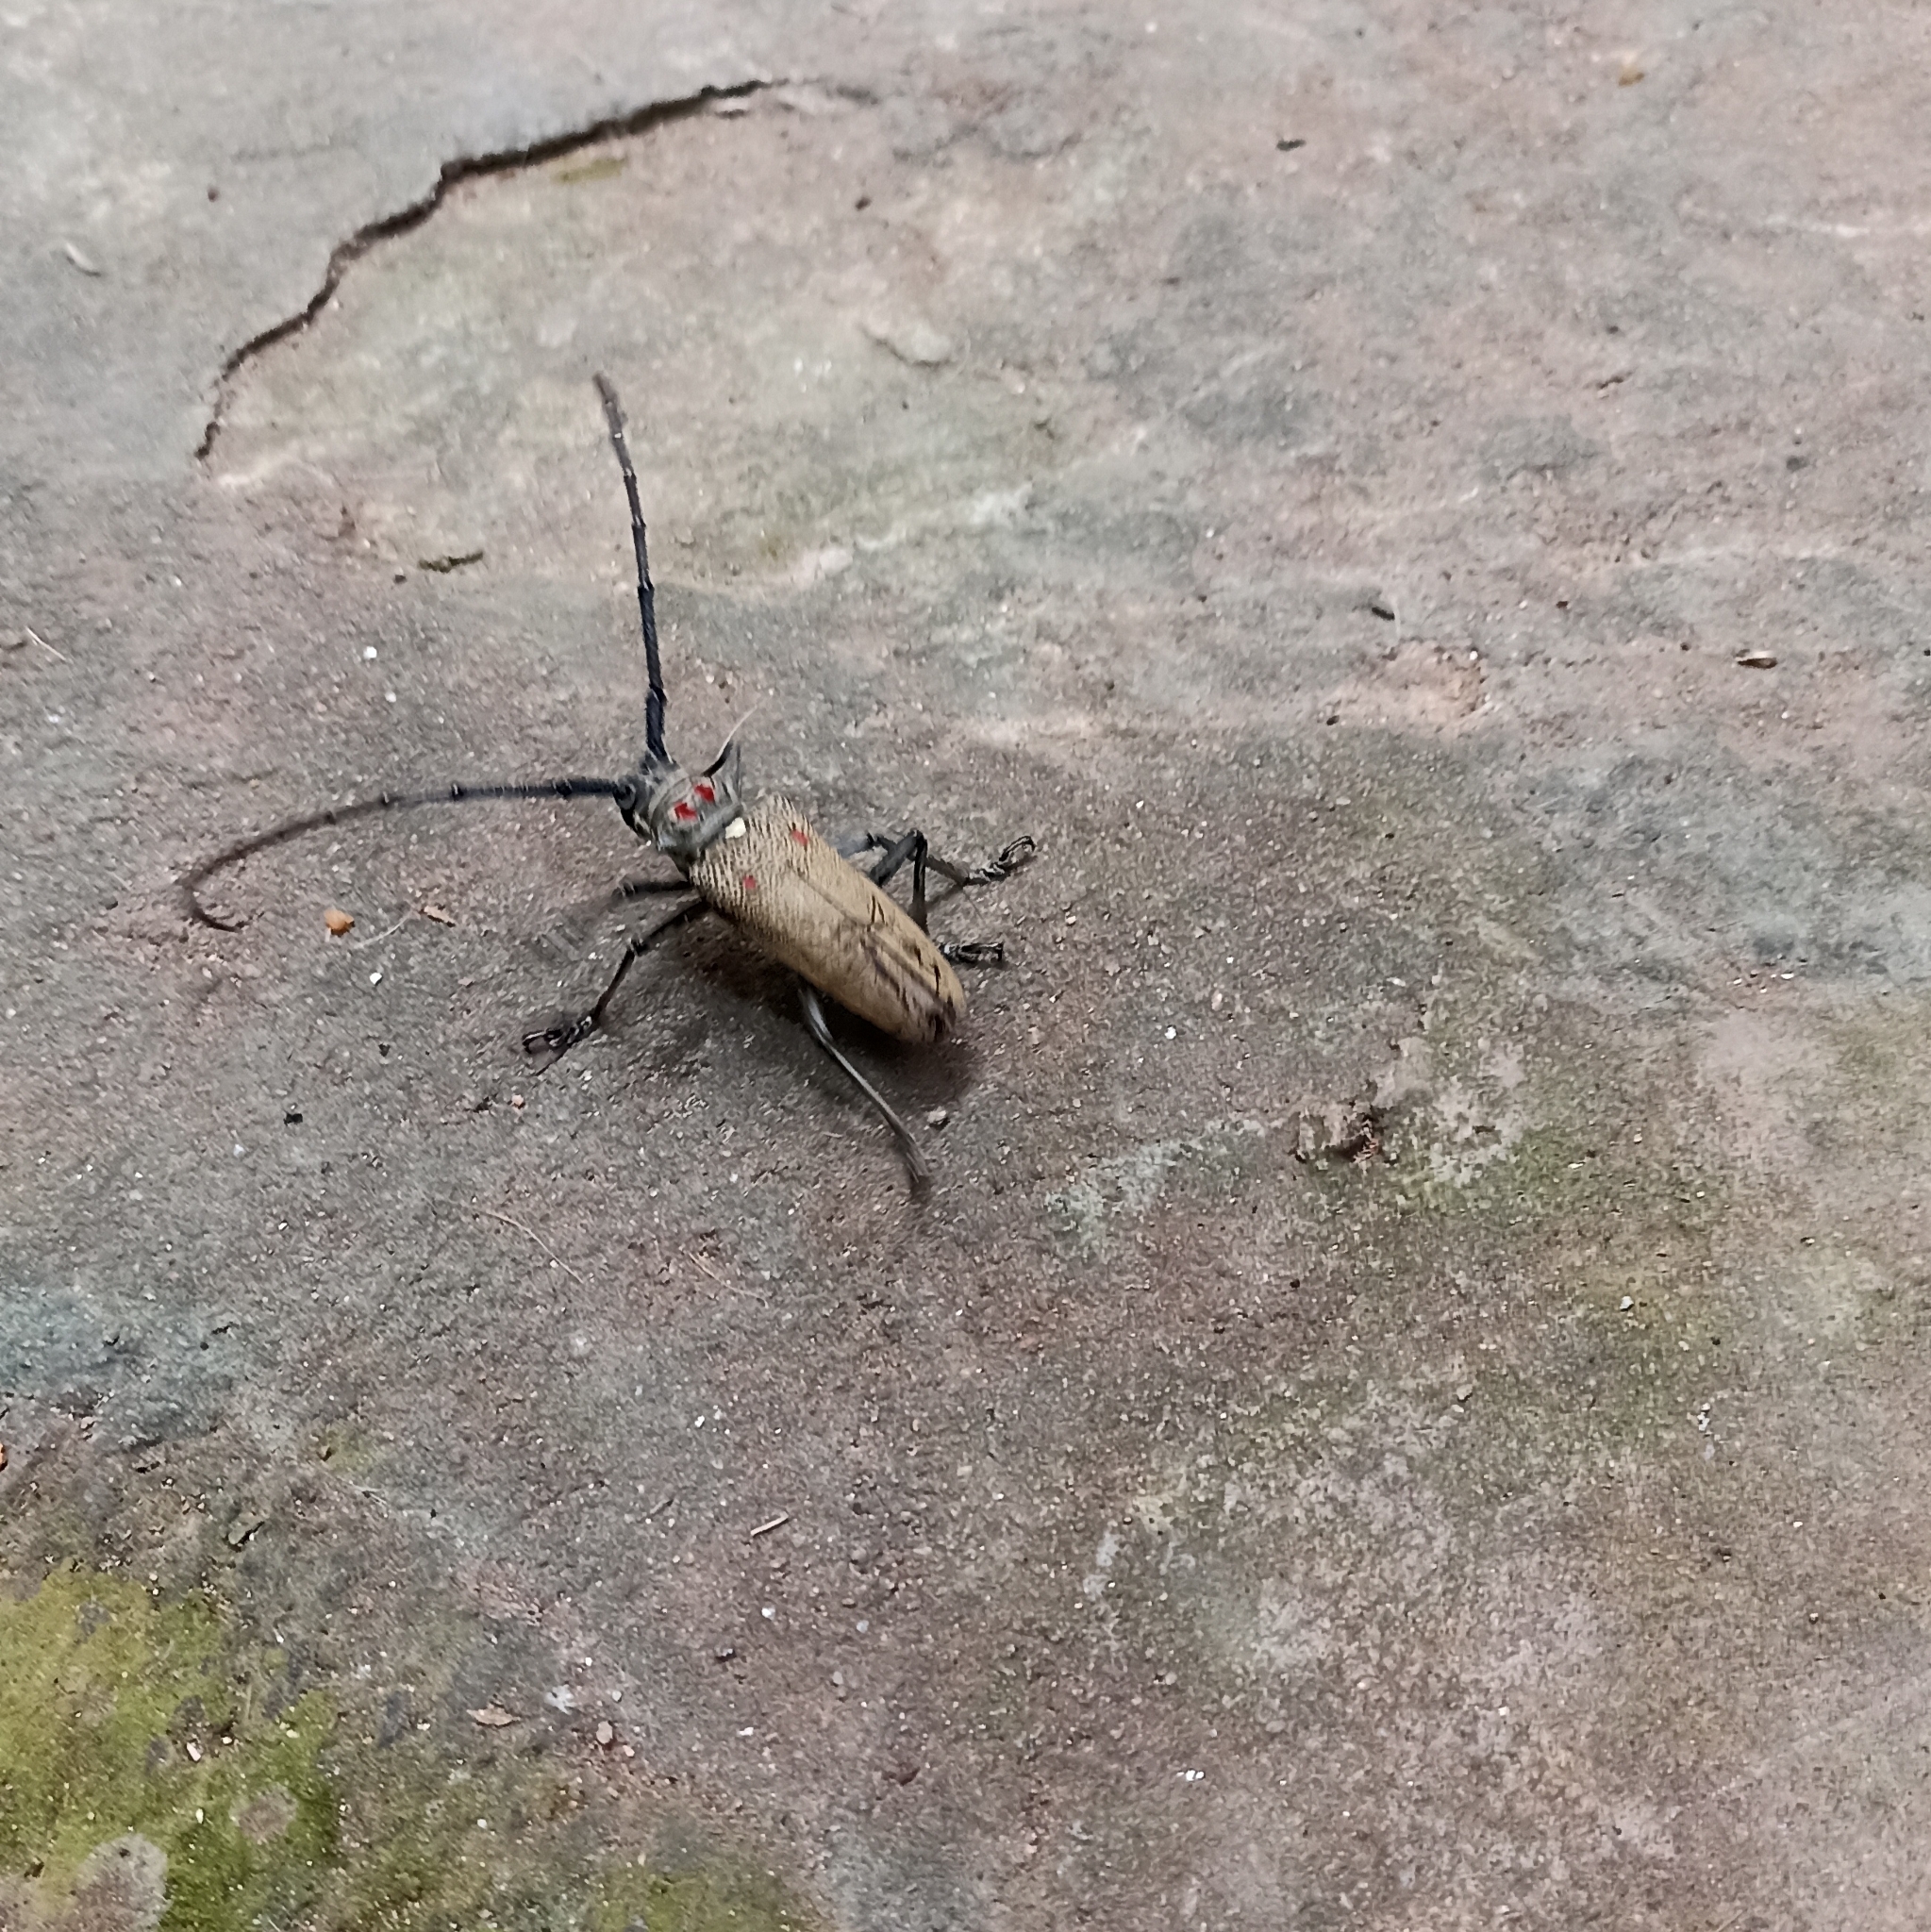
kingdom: Animalia
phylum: Arthropoda
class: Insecta
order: Coleoptera
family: Cerambycidae
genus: Batocera
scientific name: Batocera rufomaculata
